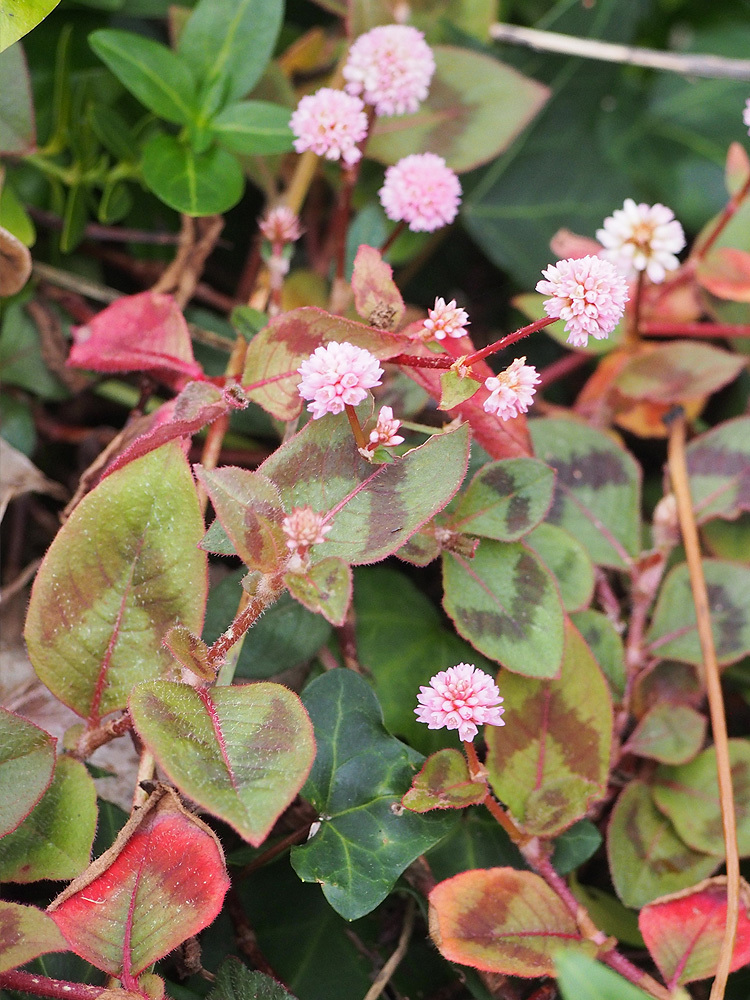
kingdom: Plantae
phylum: Tracheophyta
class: Magnoliopsida
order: Caryophyllales
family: Polygonaceae
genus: Persicaria
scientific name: Persicaria capitata
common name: Pinkhead smartweed
